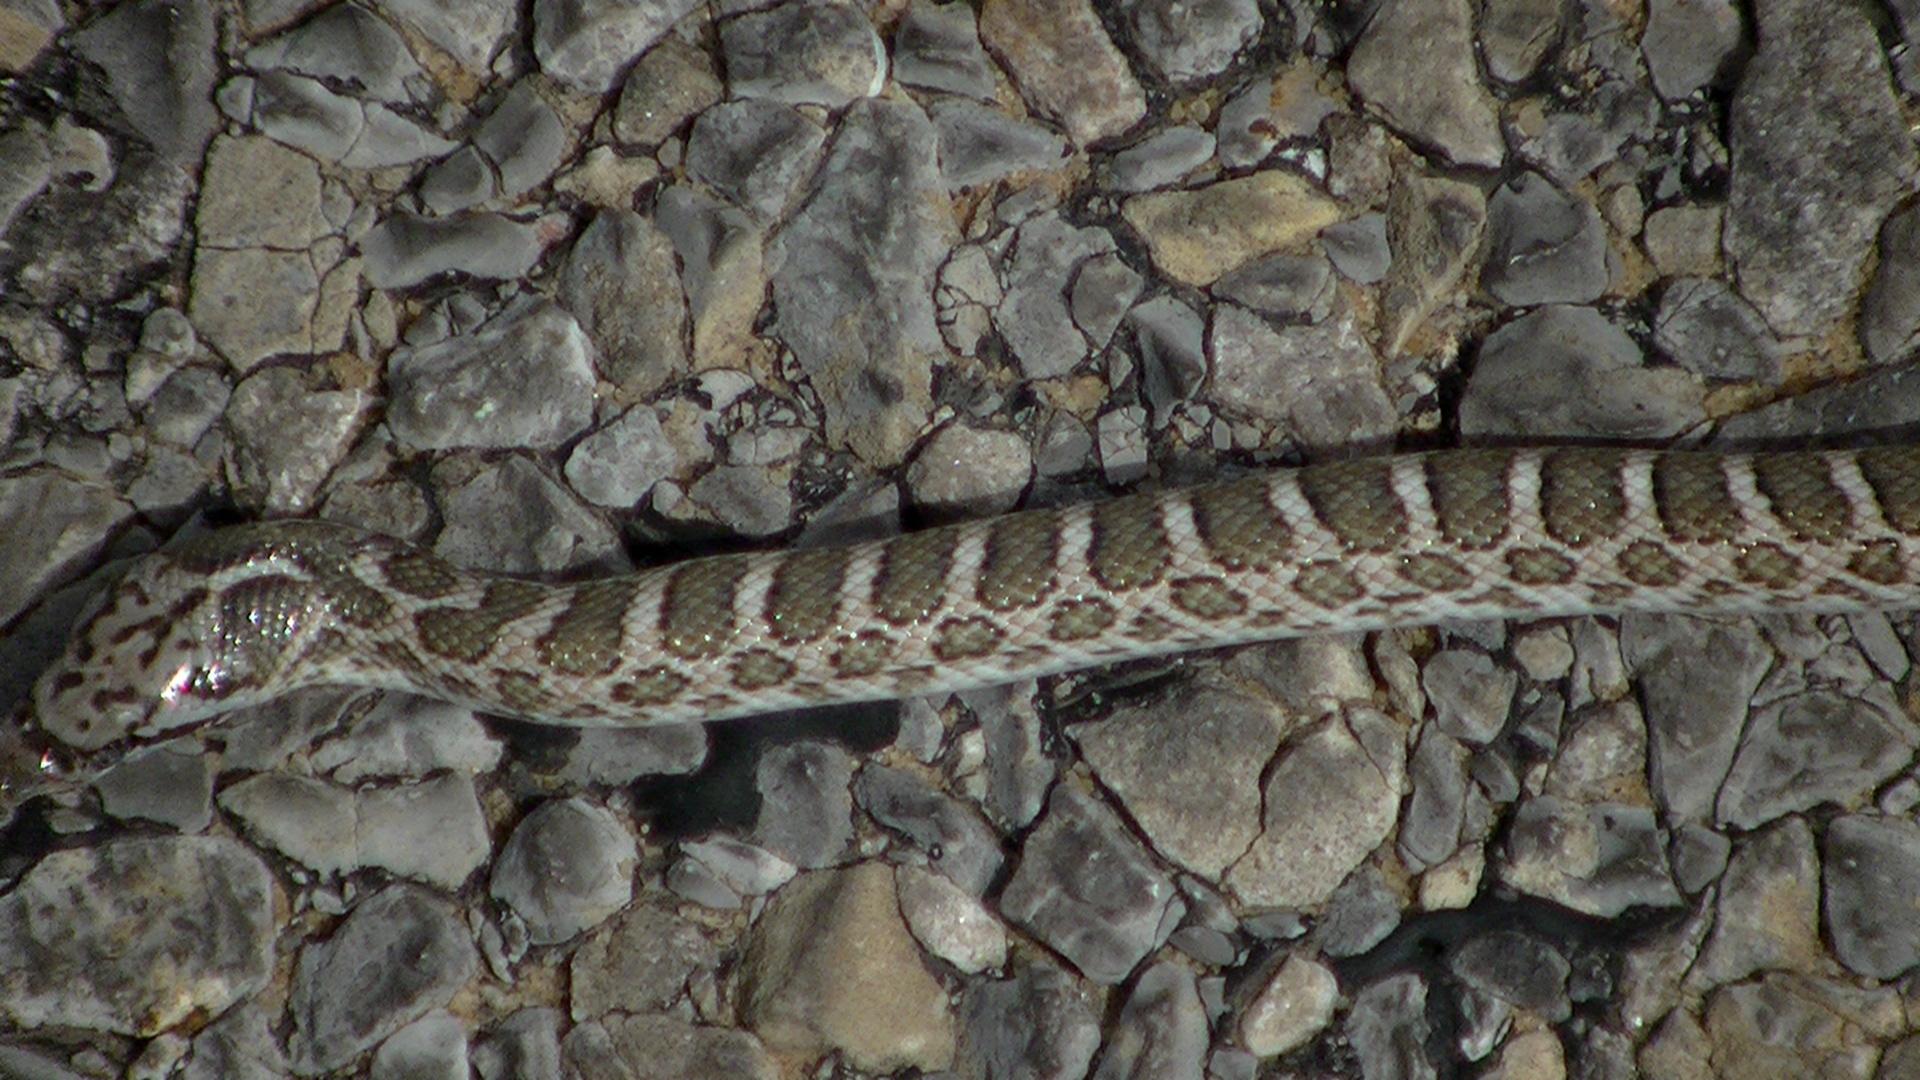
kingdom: Animalia
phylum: Chordata
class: Squamata
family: Colubridae
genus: Arizona
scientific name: Arizona elegans
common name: Glossy snake
